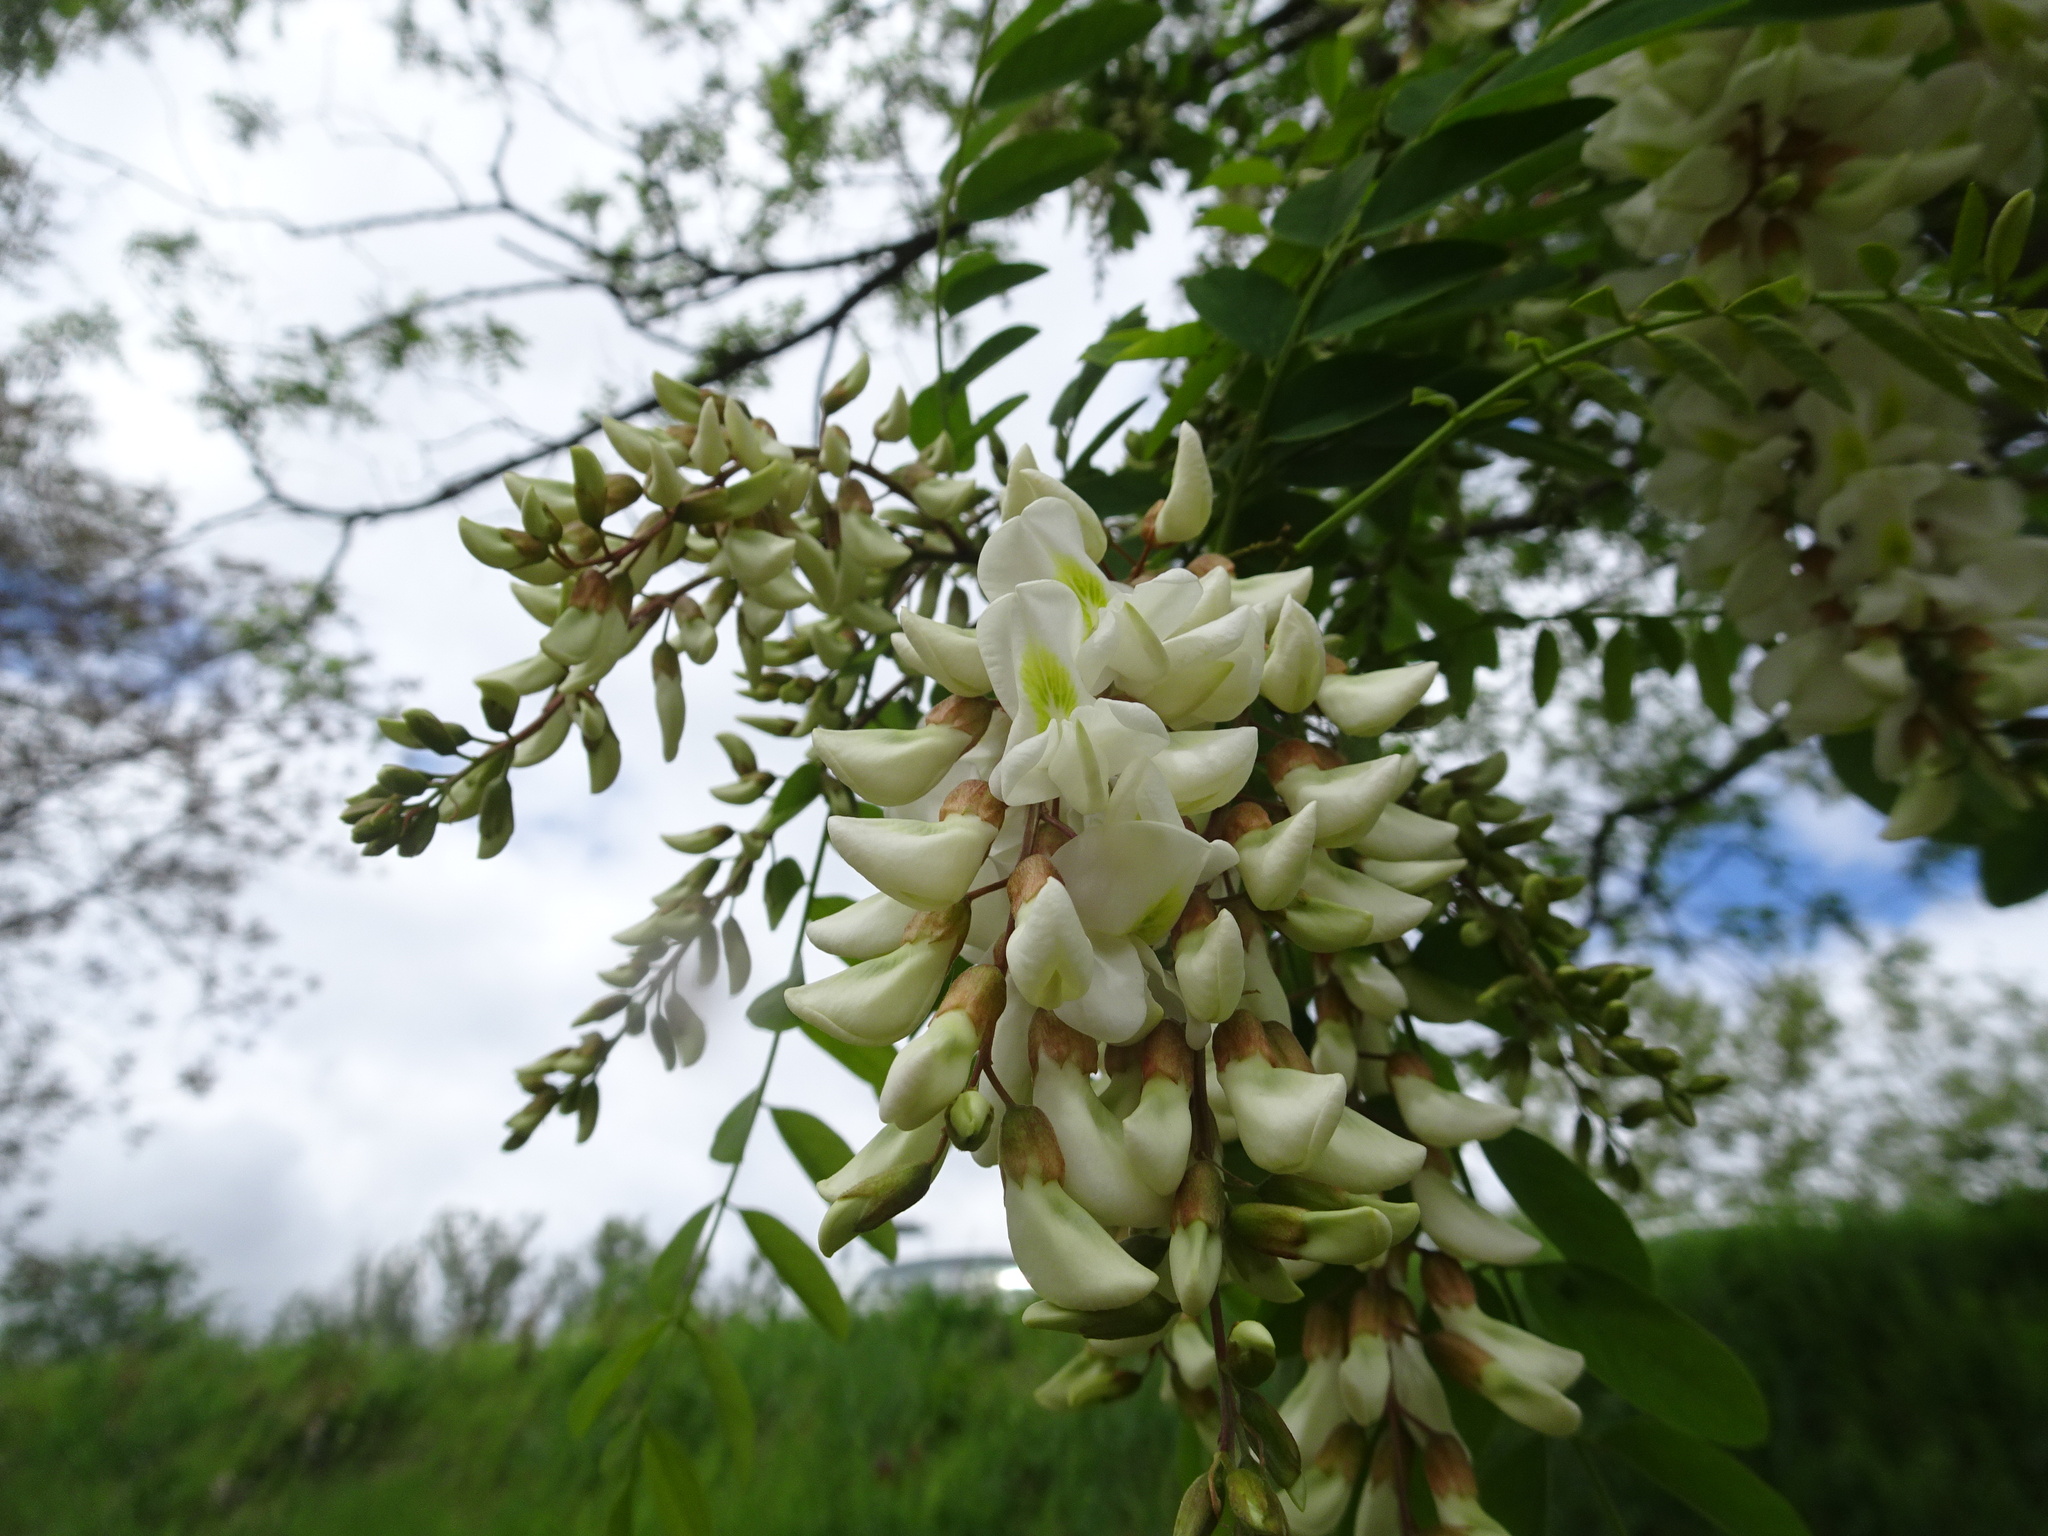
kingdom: Plantae
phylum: Tracheophyta
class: Magnoliopsida
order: Fabales
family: Fabaceae
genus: Robinia
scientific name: Robinia pseudoacacia
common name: Black locust
